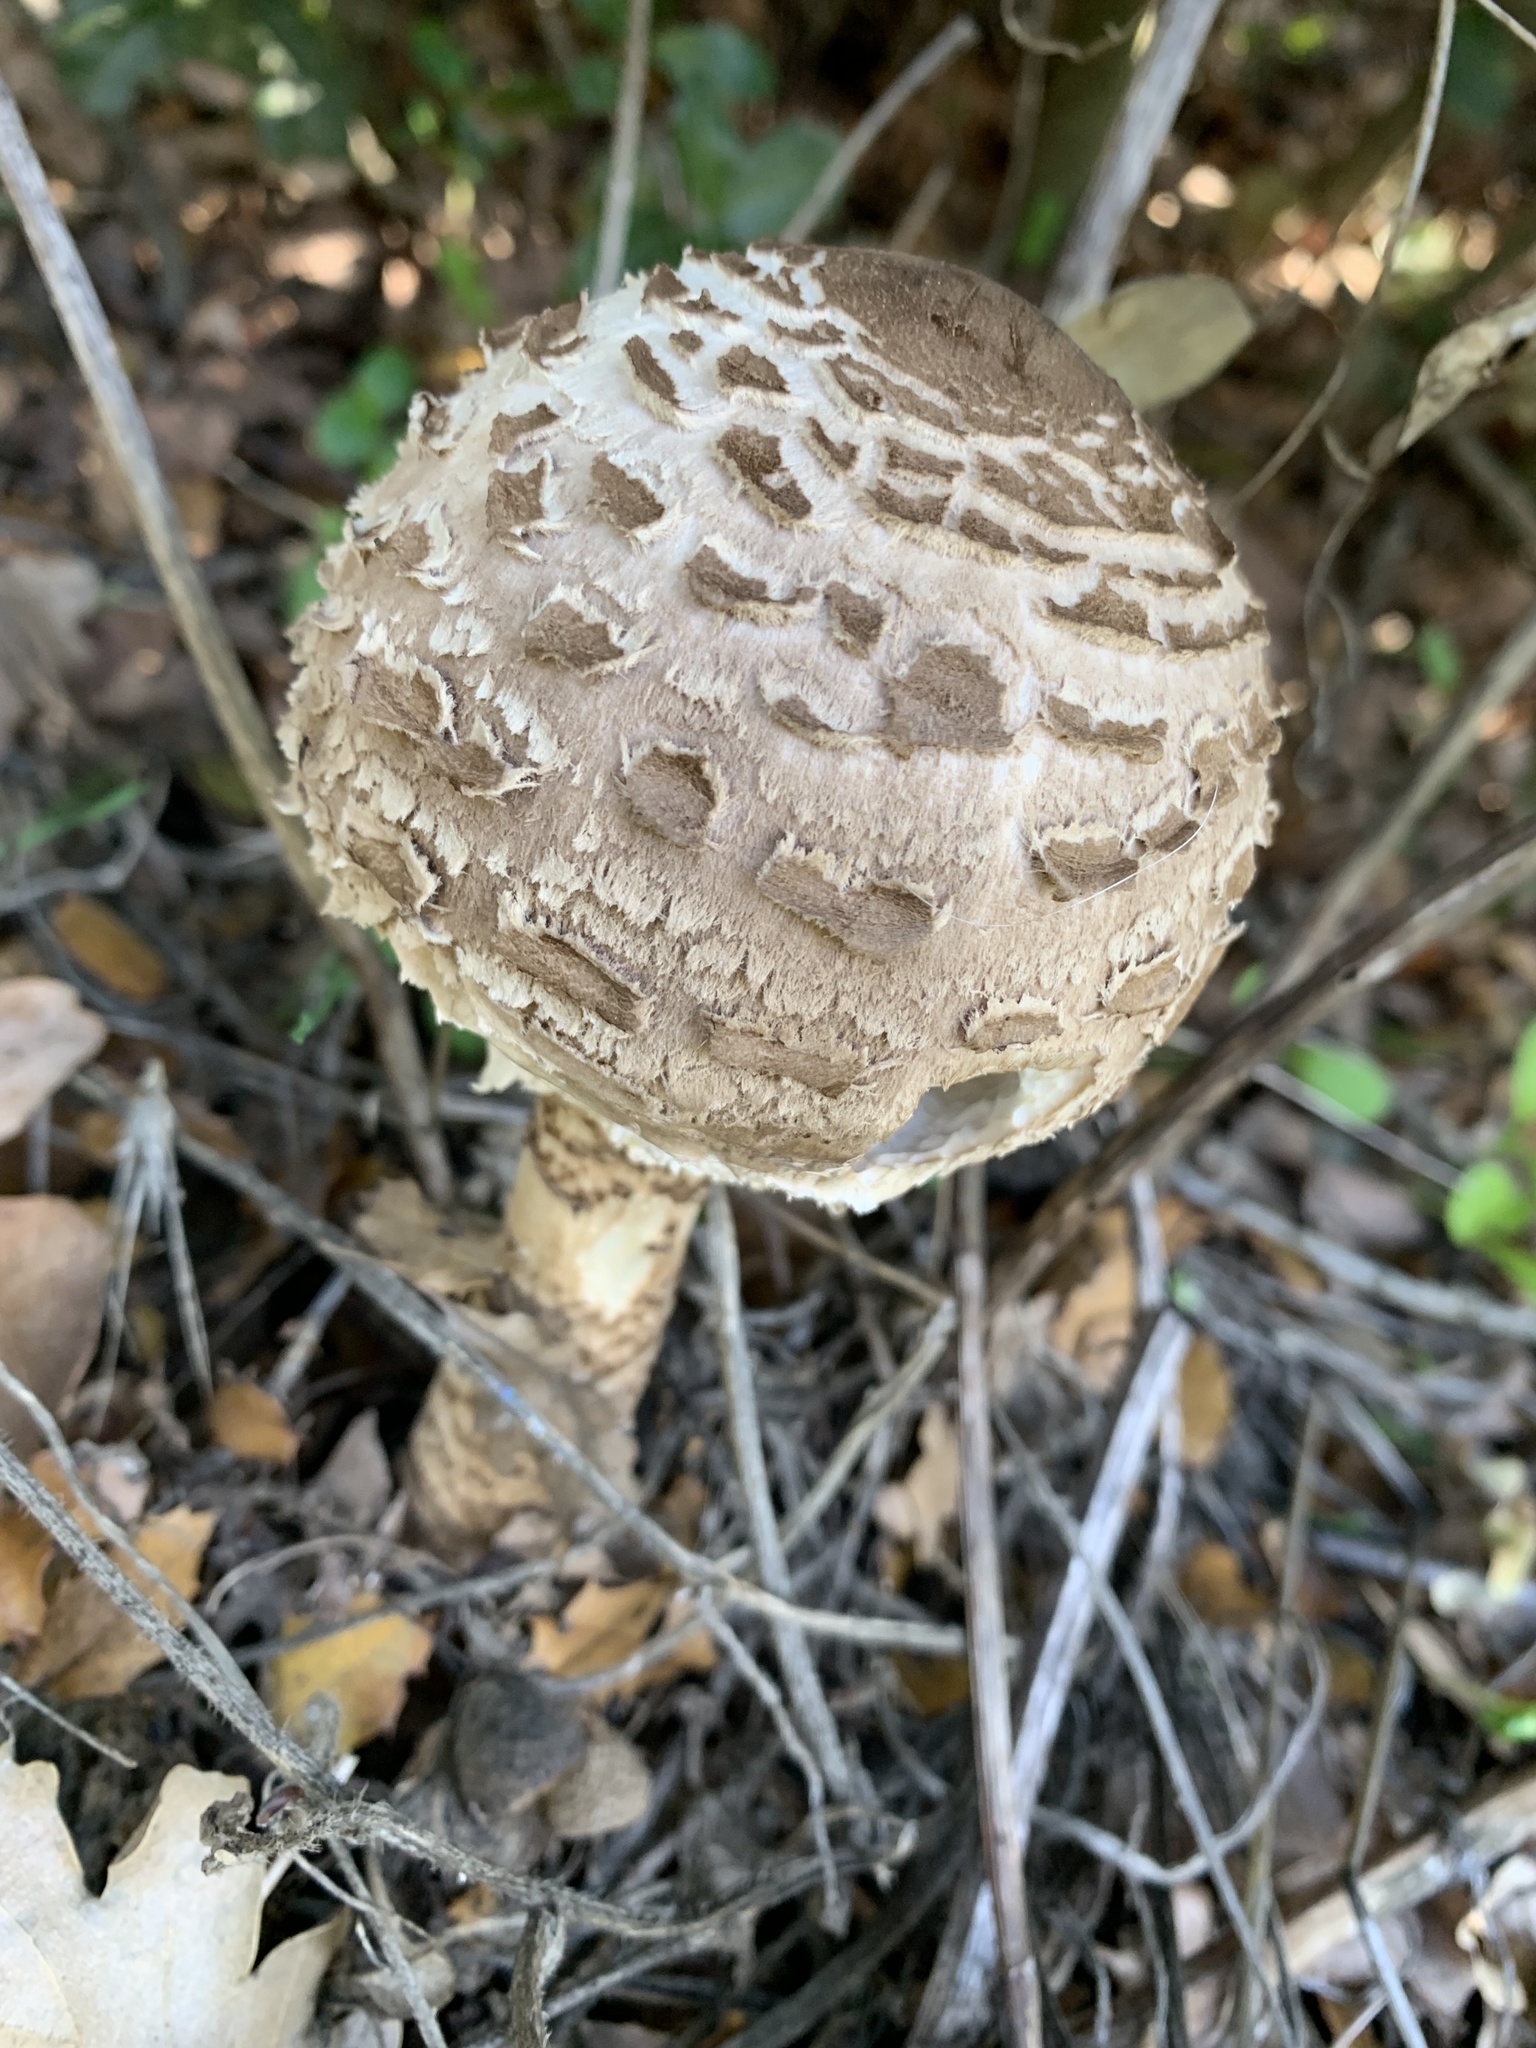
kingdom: Fungi
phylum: Basidiomycota
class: Agaricomycetes
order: Agaricales
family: Agaricaceae
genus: Macrolepiota
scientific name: Macrolepiota procera
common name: Parasol
